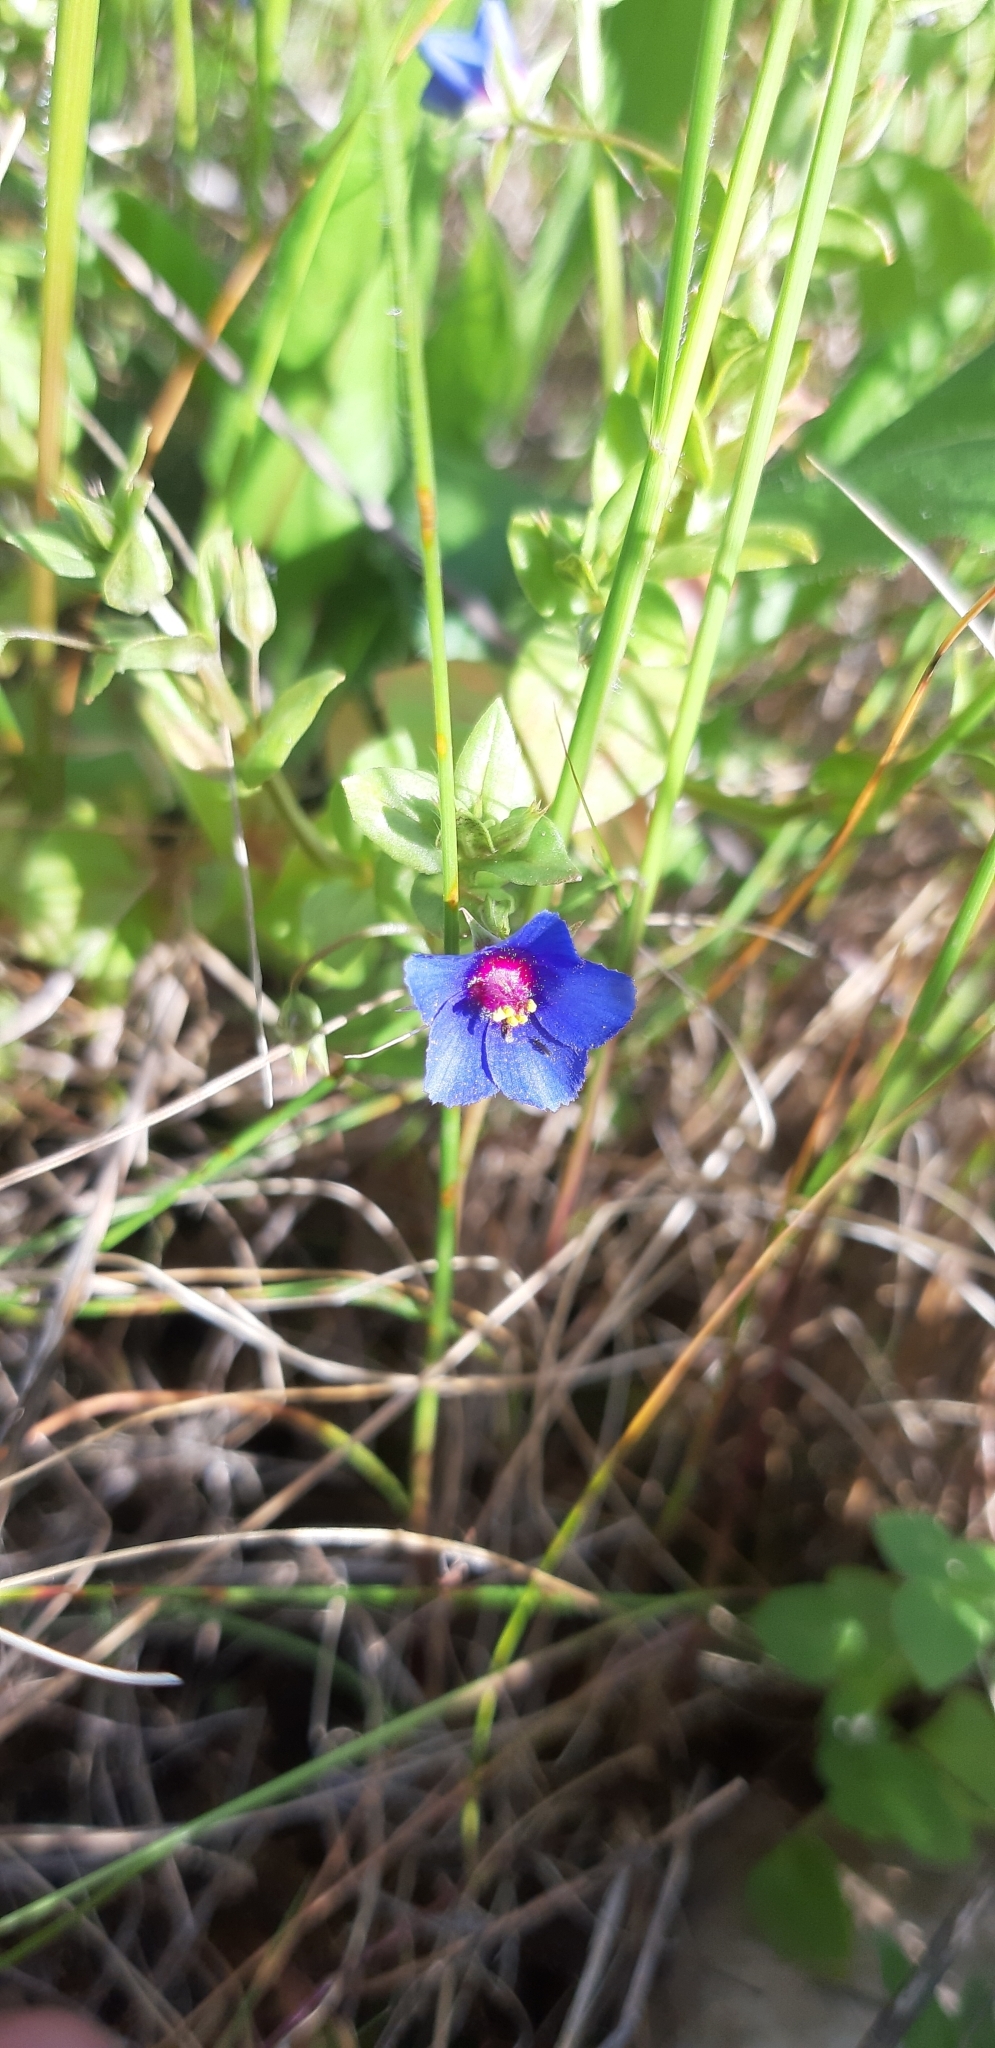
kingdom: Plantae
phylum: Tracheophyta
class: Magnoliopsida
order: Ericales
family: Primulaceae
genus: Lysimachia
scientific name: Lysimachia foemina
